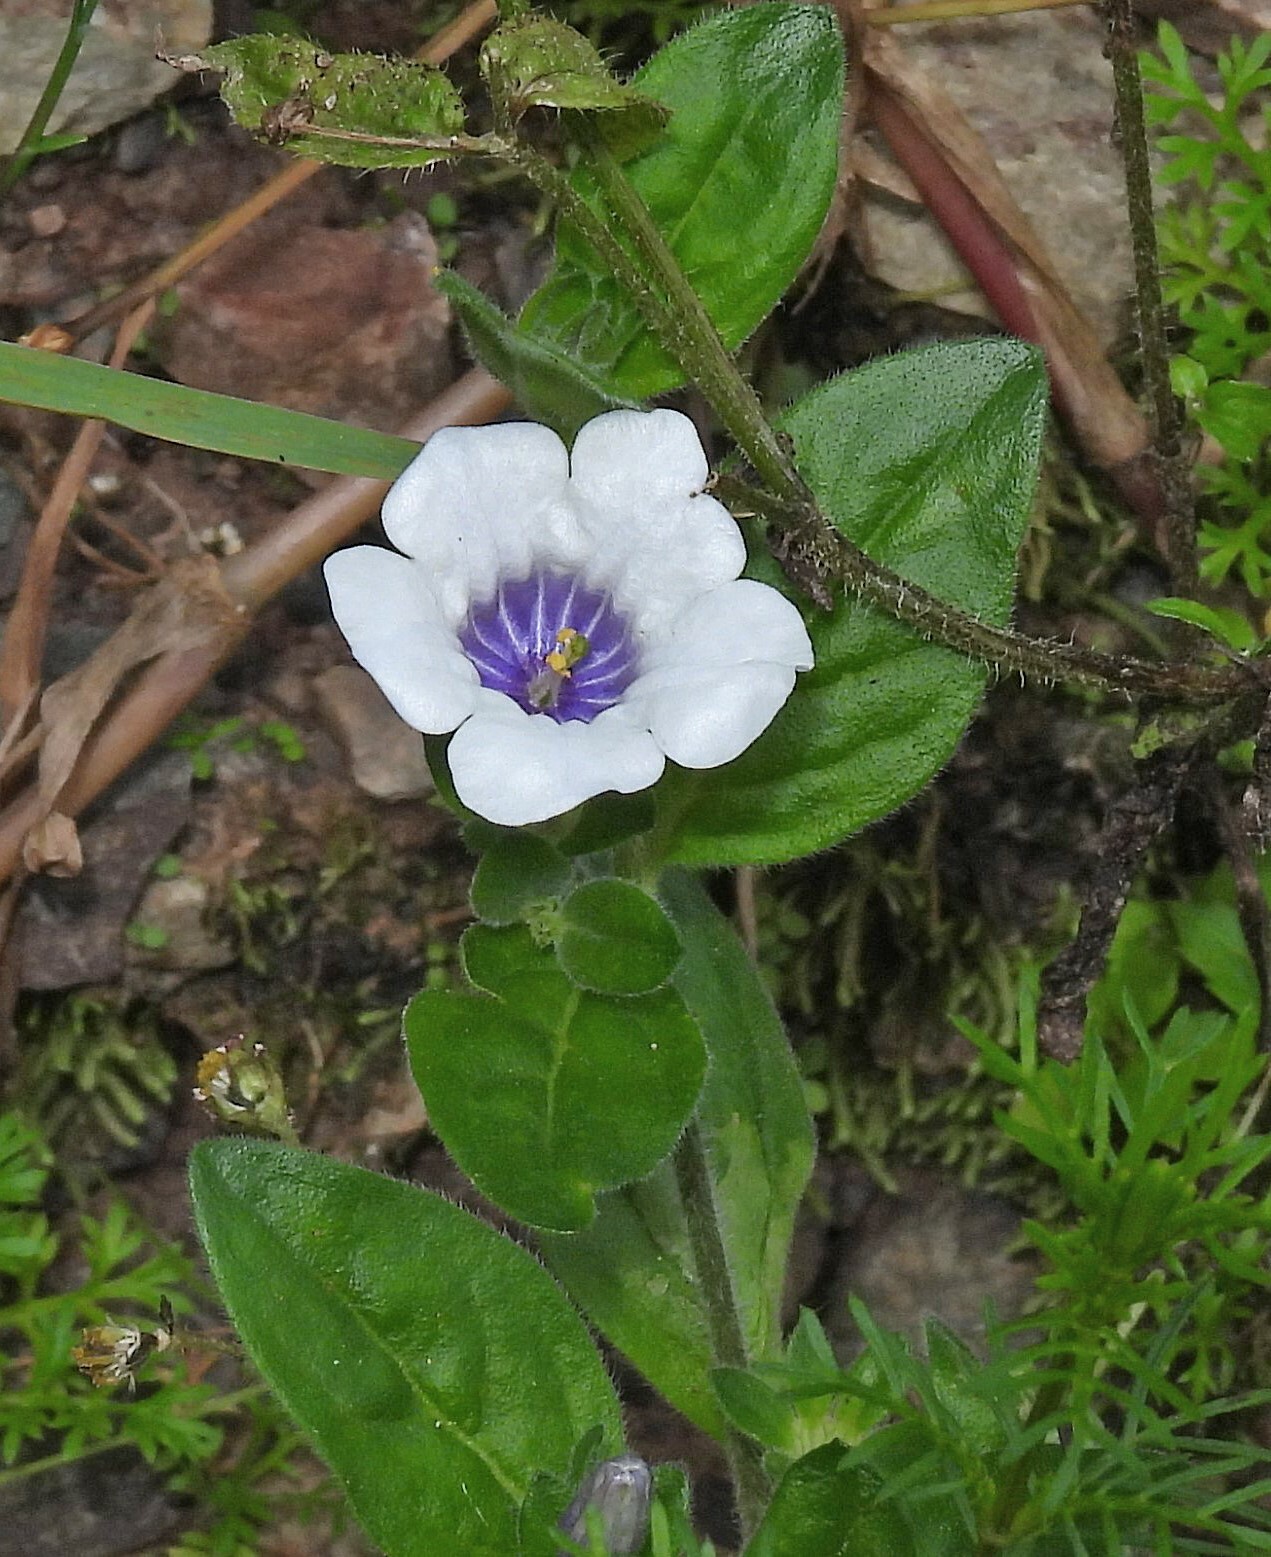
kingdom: Plantae
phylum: Tracheophyta
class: Magnoliopsida
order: Solanales
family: Solanaceae
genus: Nierembergia
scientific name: Nierembergia browallioides
